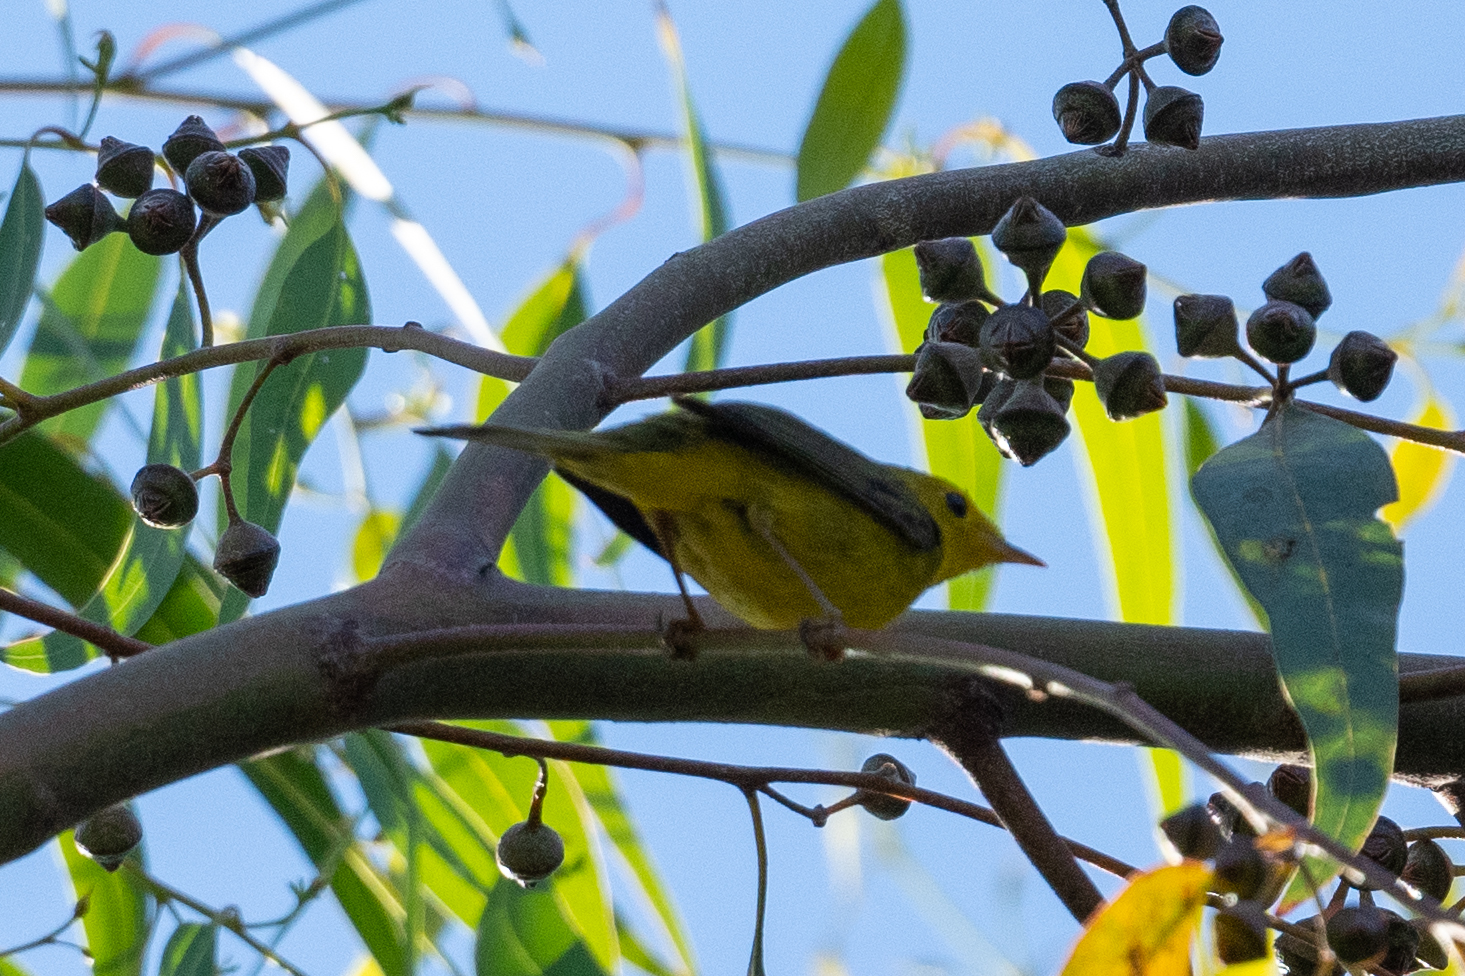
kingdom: Animalia
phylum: Chordata
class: Aves
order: Passeriformes
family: Parulidae
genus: Cardellina
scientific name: Cardellina pusilla
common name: Wilson's warbler
